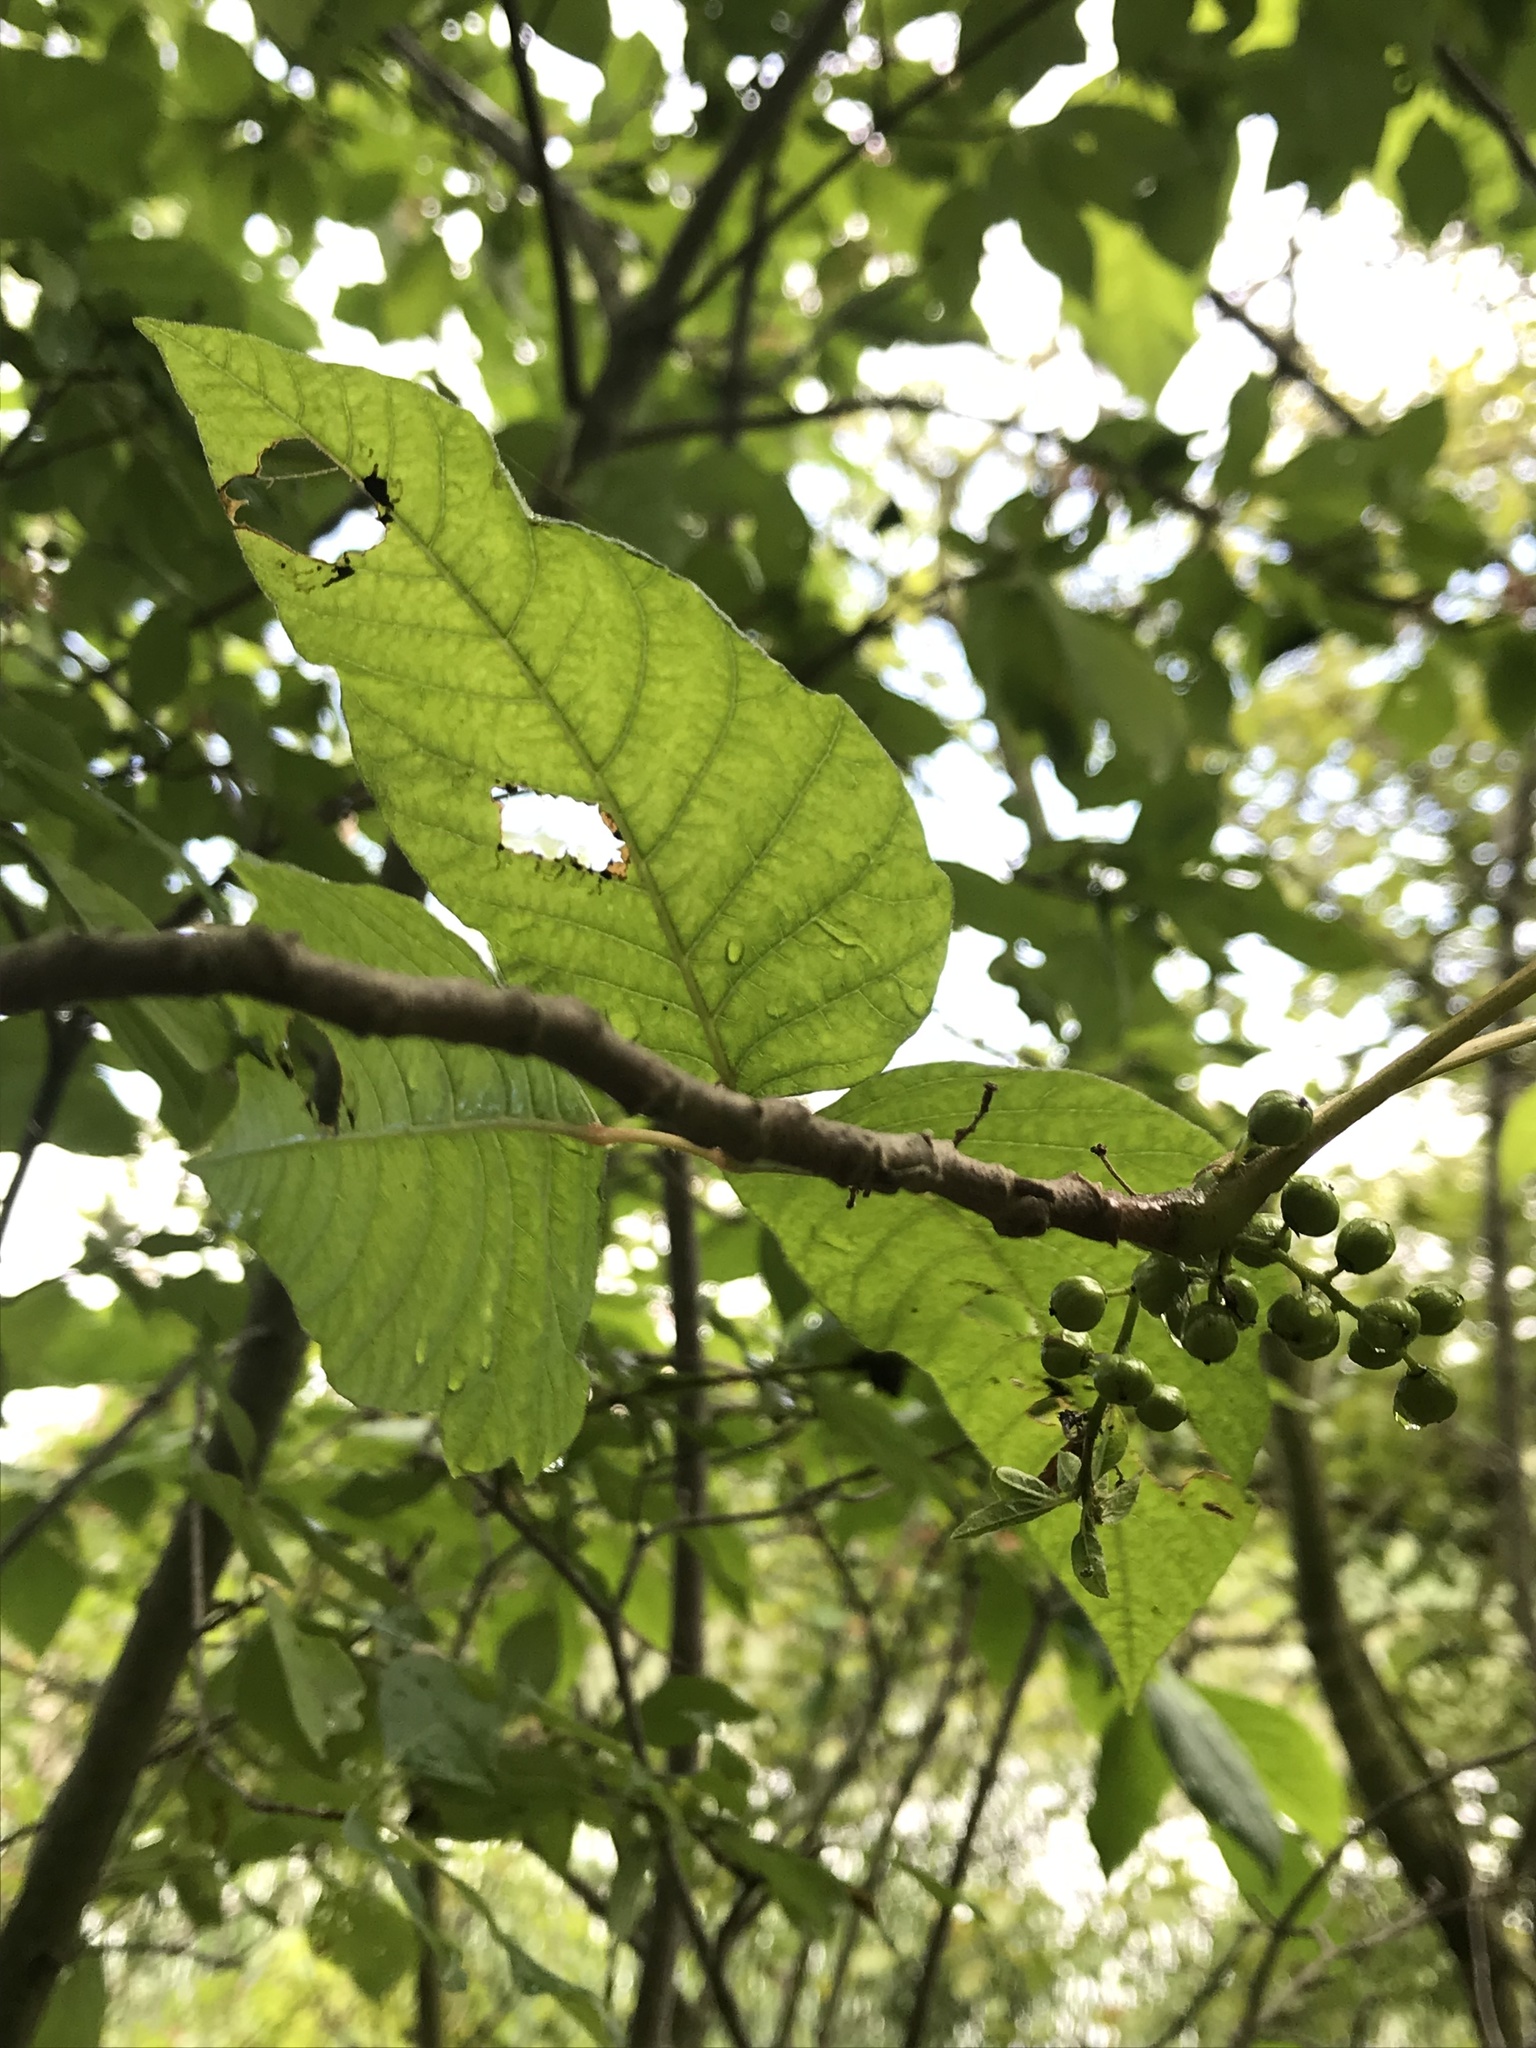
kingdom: Plantae
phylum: Tracheophyta
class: Magnoliopsida
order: Sapindales
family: Anacardiaceae
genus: Toxicodendron
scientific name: Toxicodendron radicans
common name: Poison ivy
